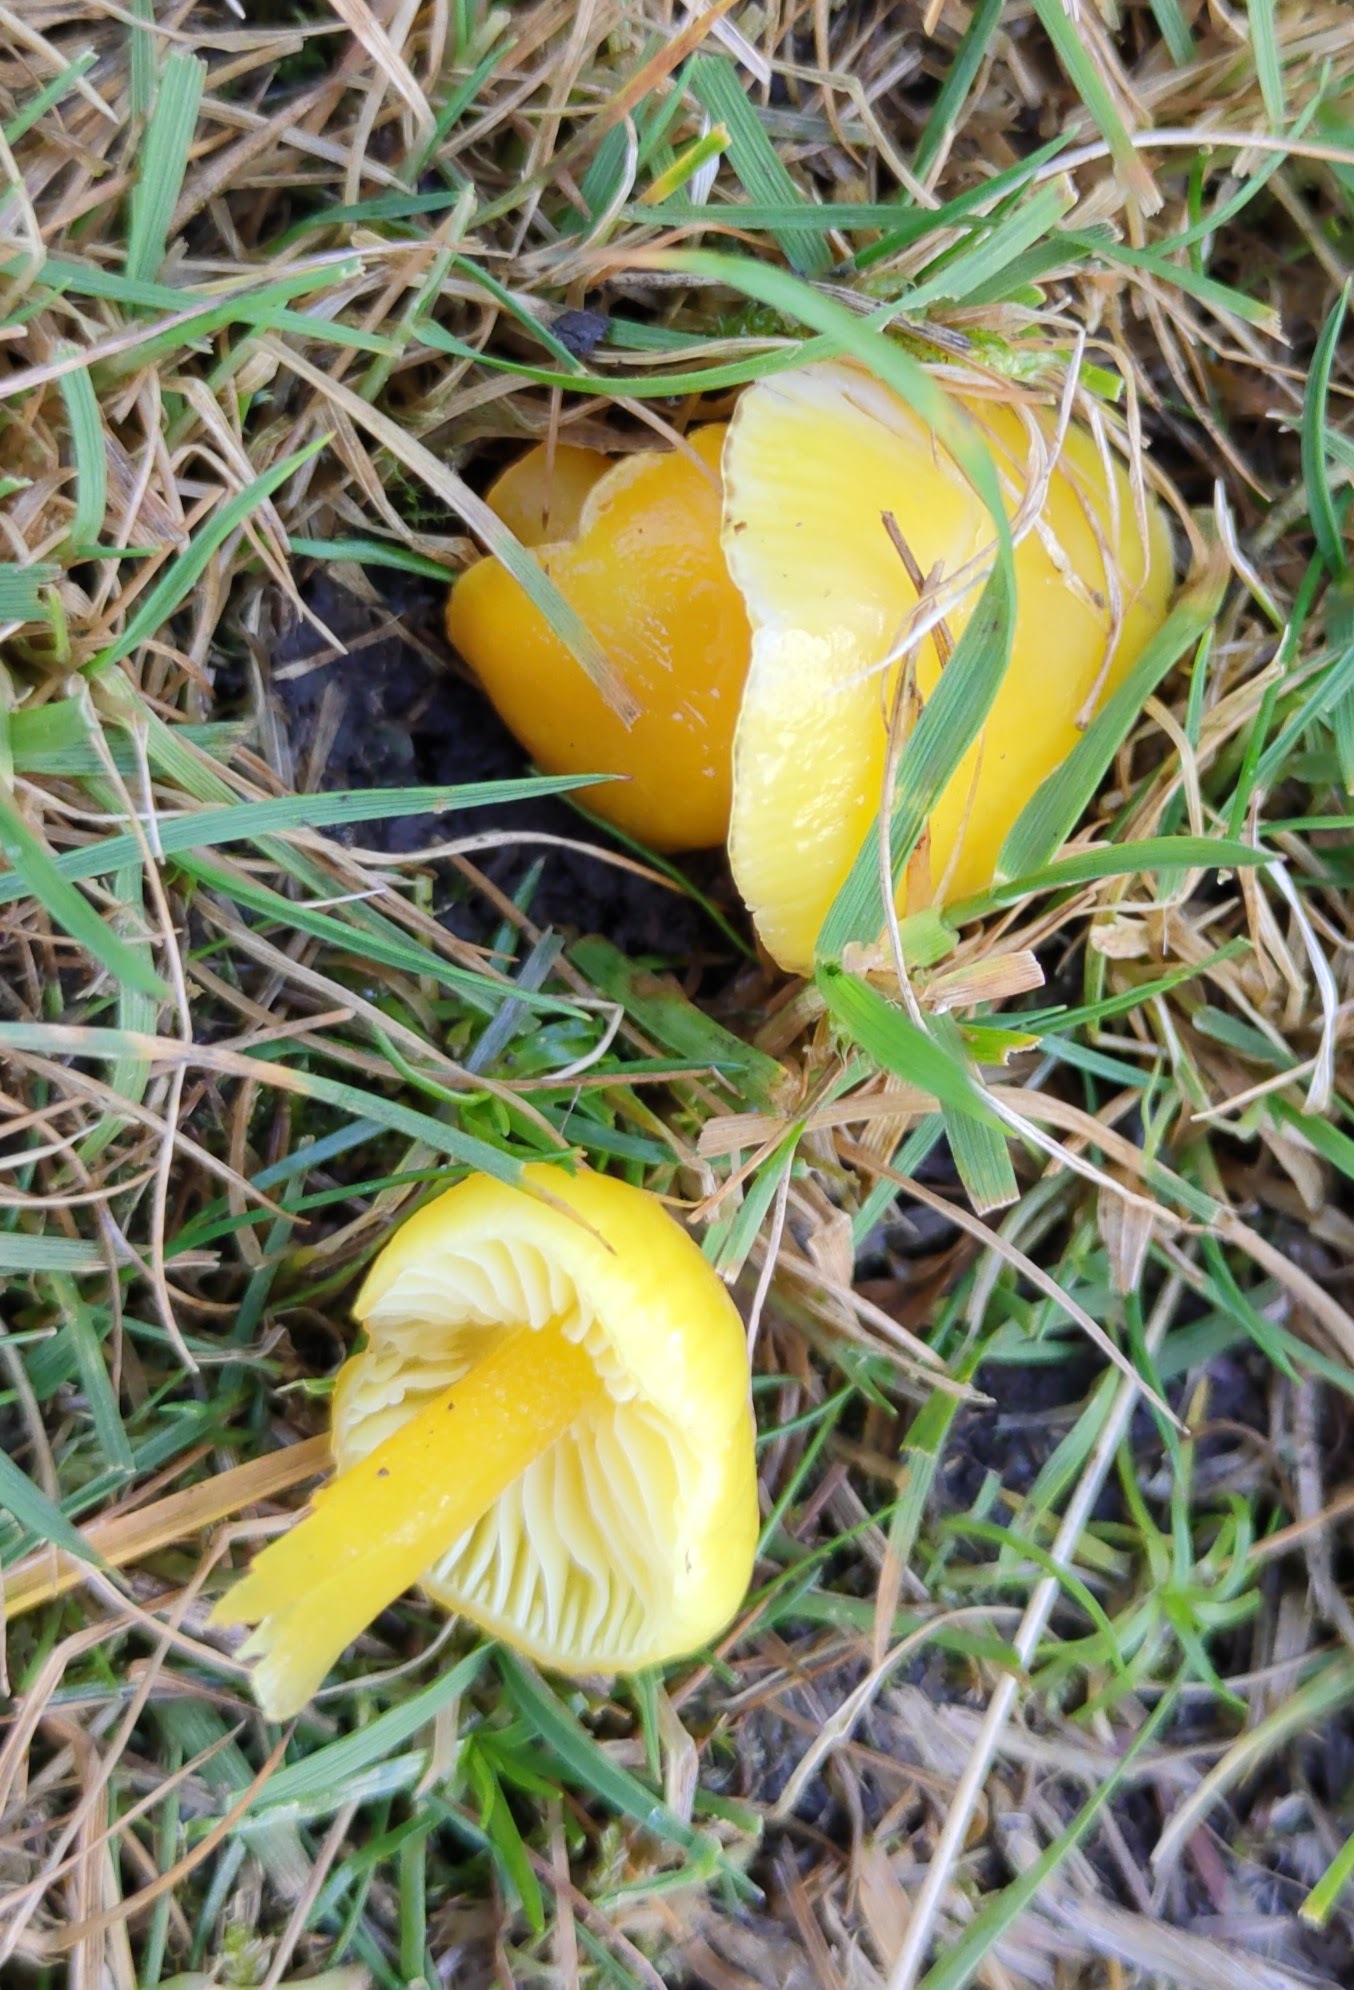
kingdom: Fungi
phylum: Basidiomycota
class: Agaricomycetes
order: Agaricales
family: Hygrophoraceae
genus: Hygrocybe
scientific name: Hygrocybe chlorophana
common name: Golden waxcap
